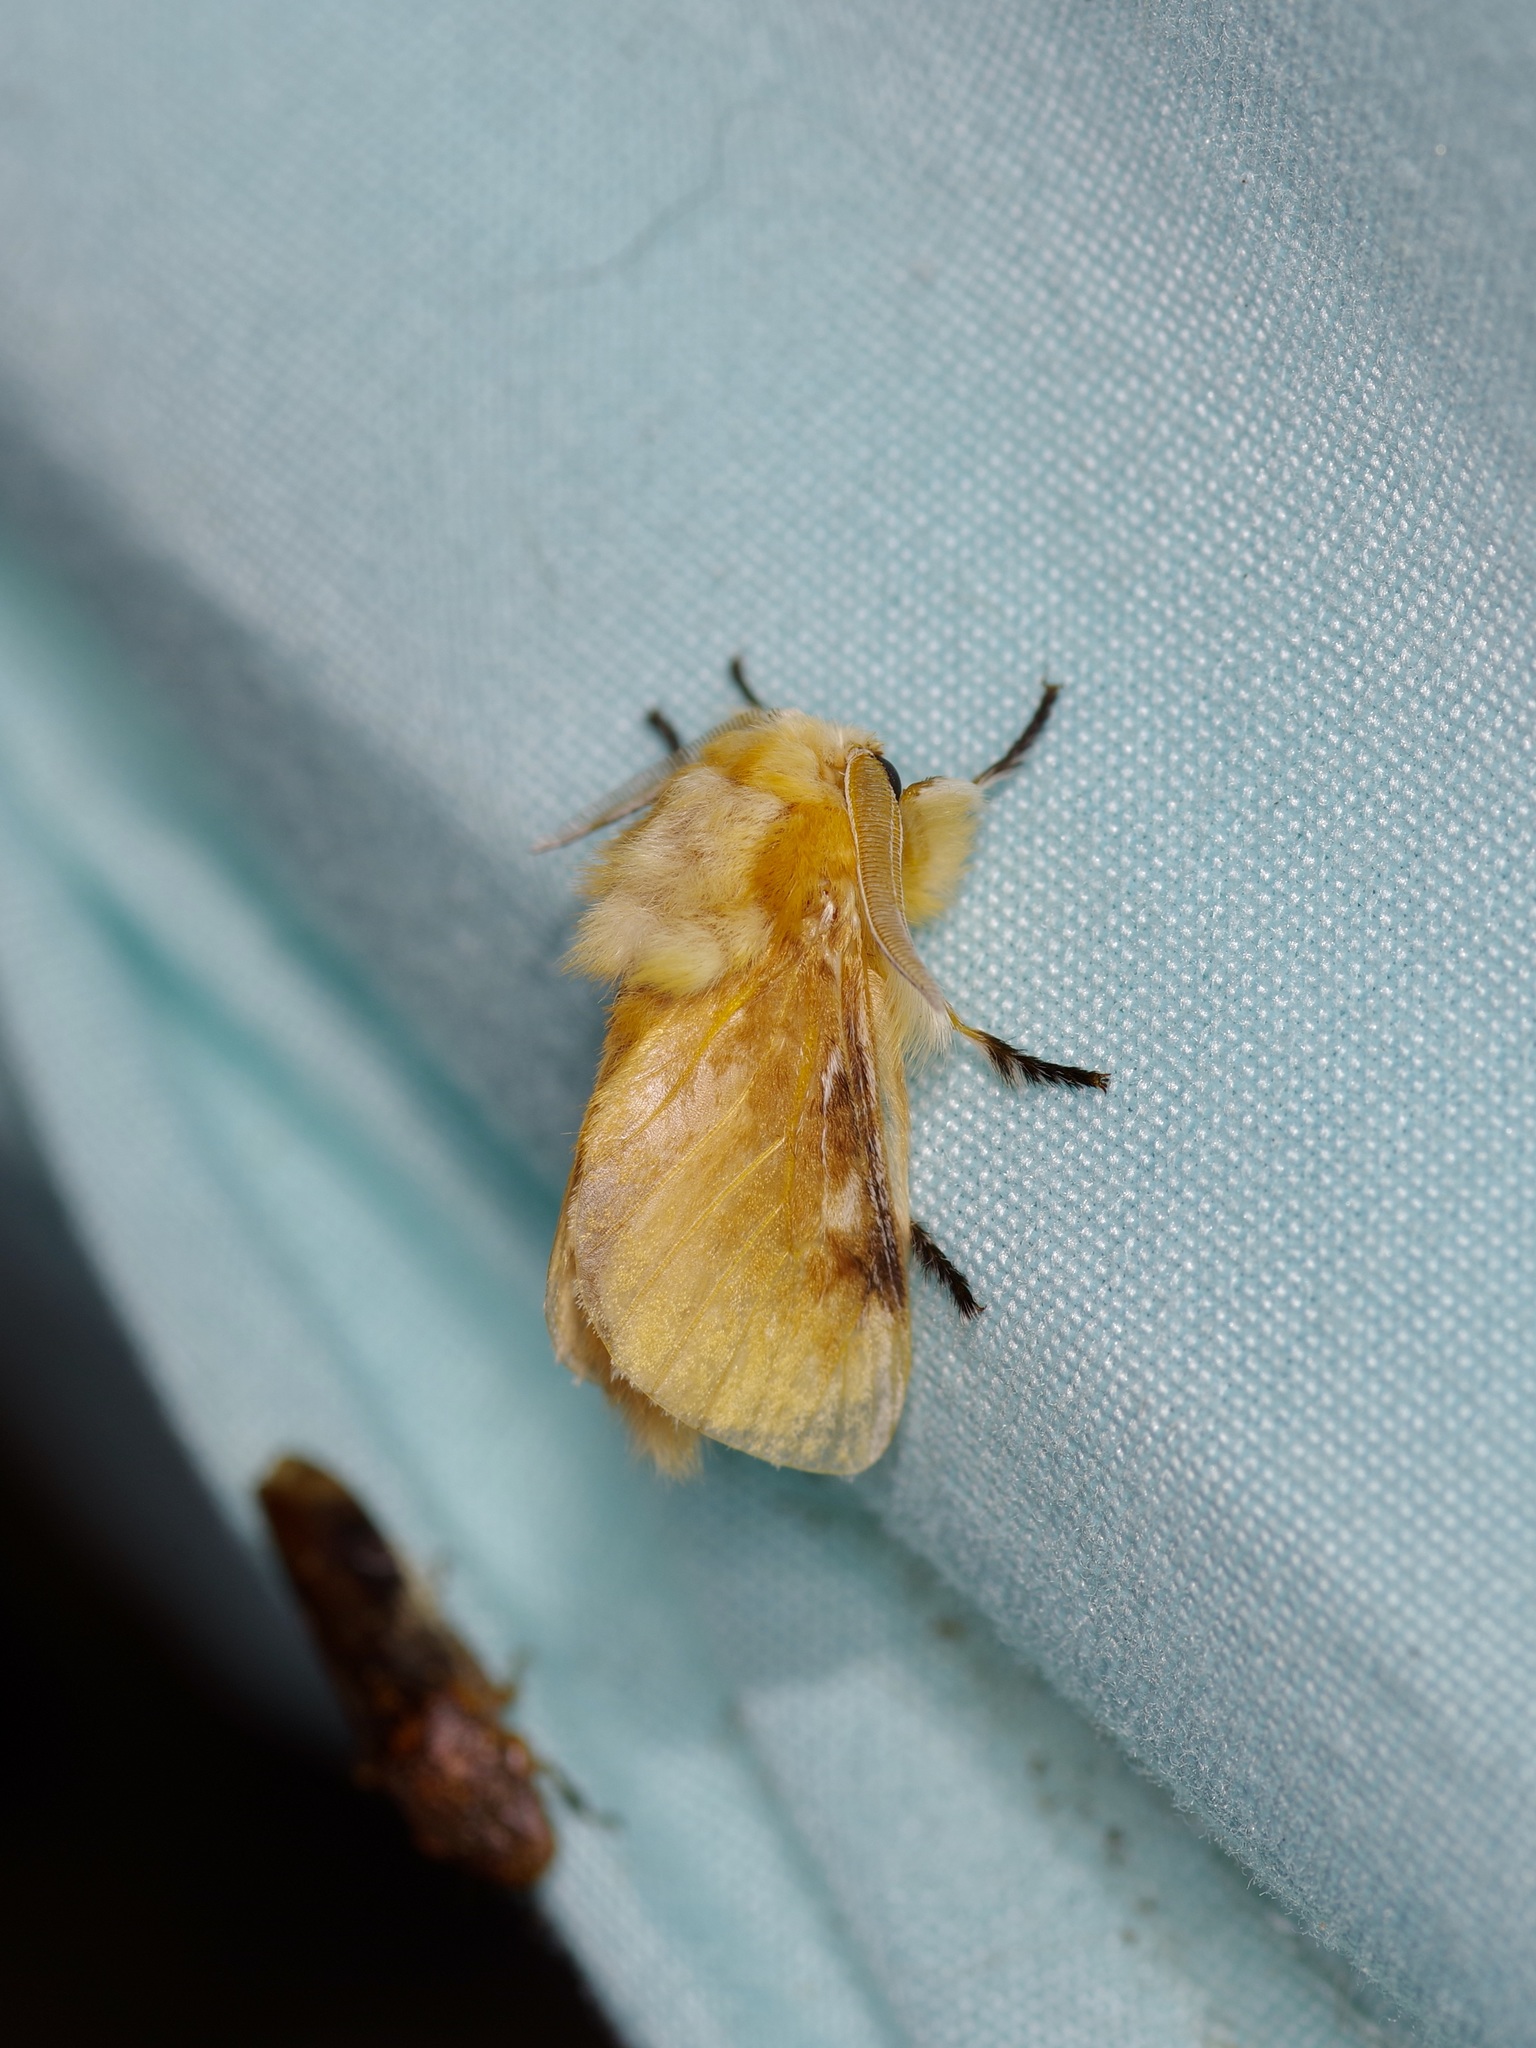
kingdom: Animalia
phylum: Arthropoda
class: Insecta
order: Lepidoptera
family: Megalopygidae
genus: Megalopyge
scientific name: Megalopyge opercularis
